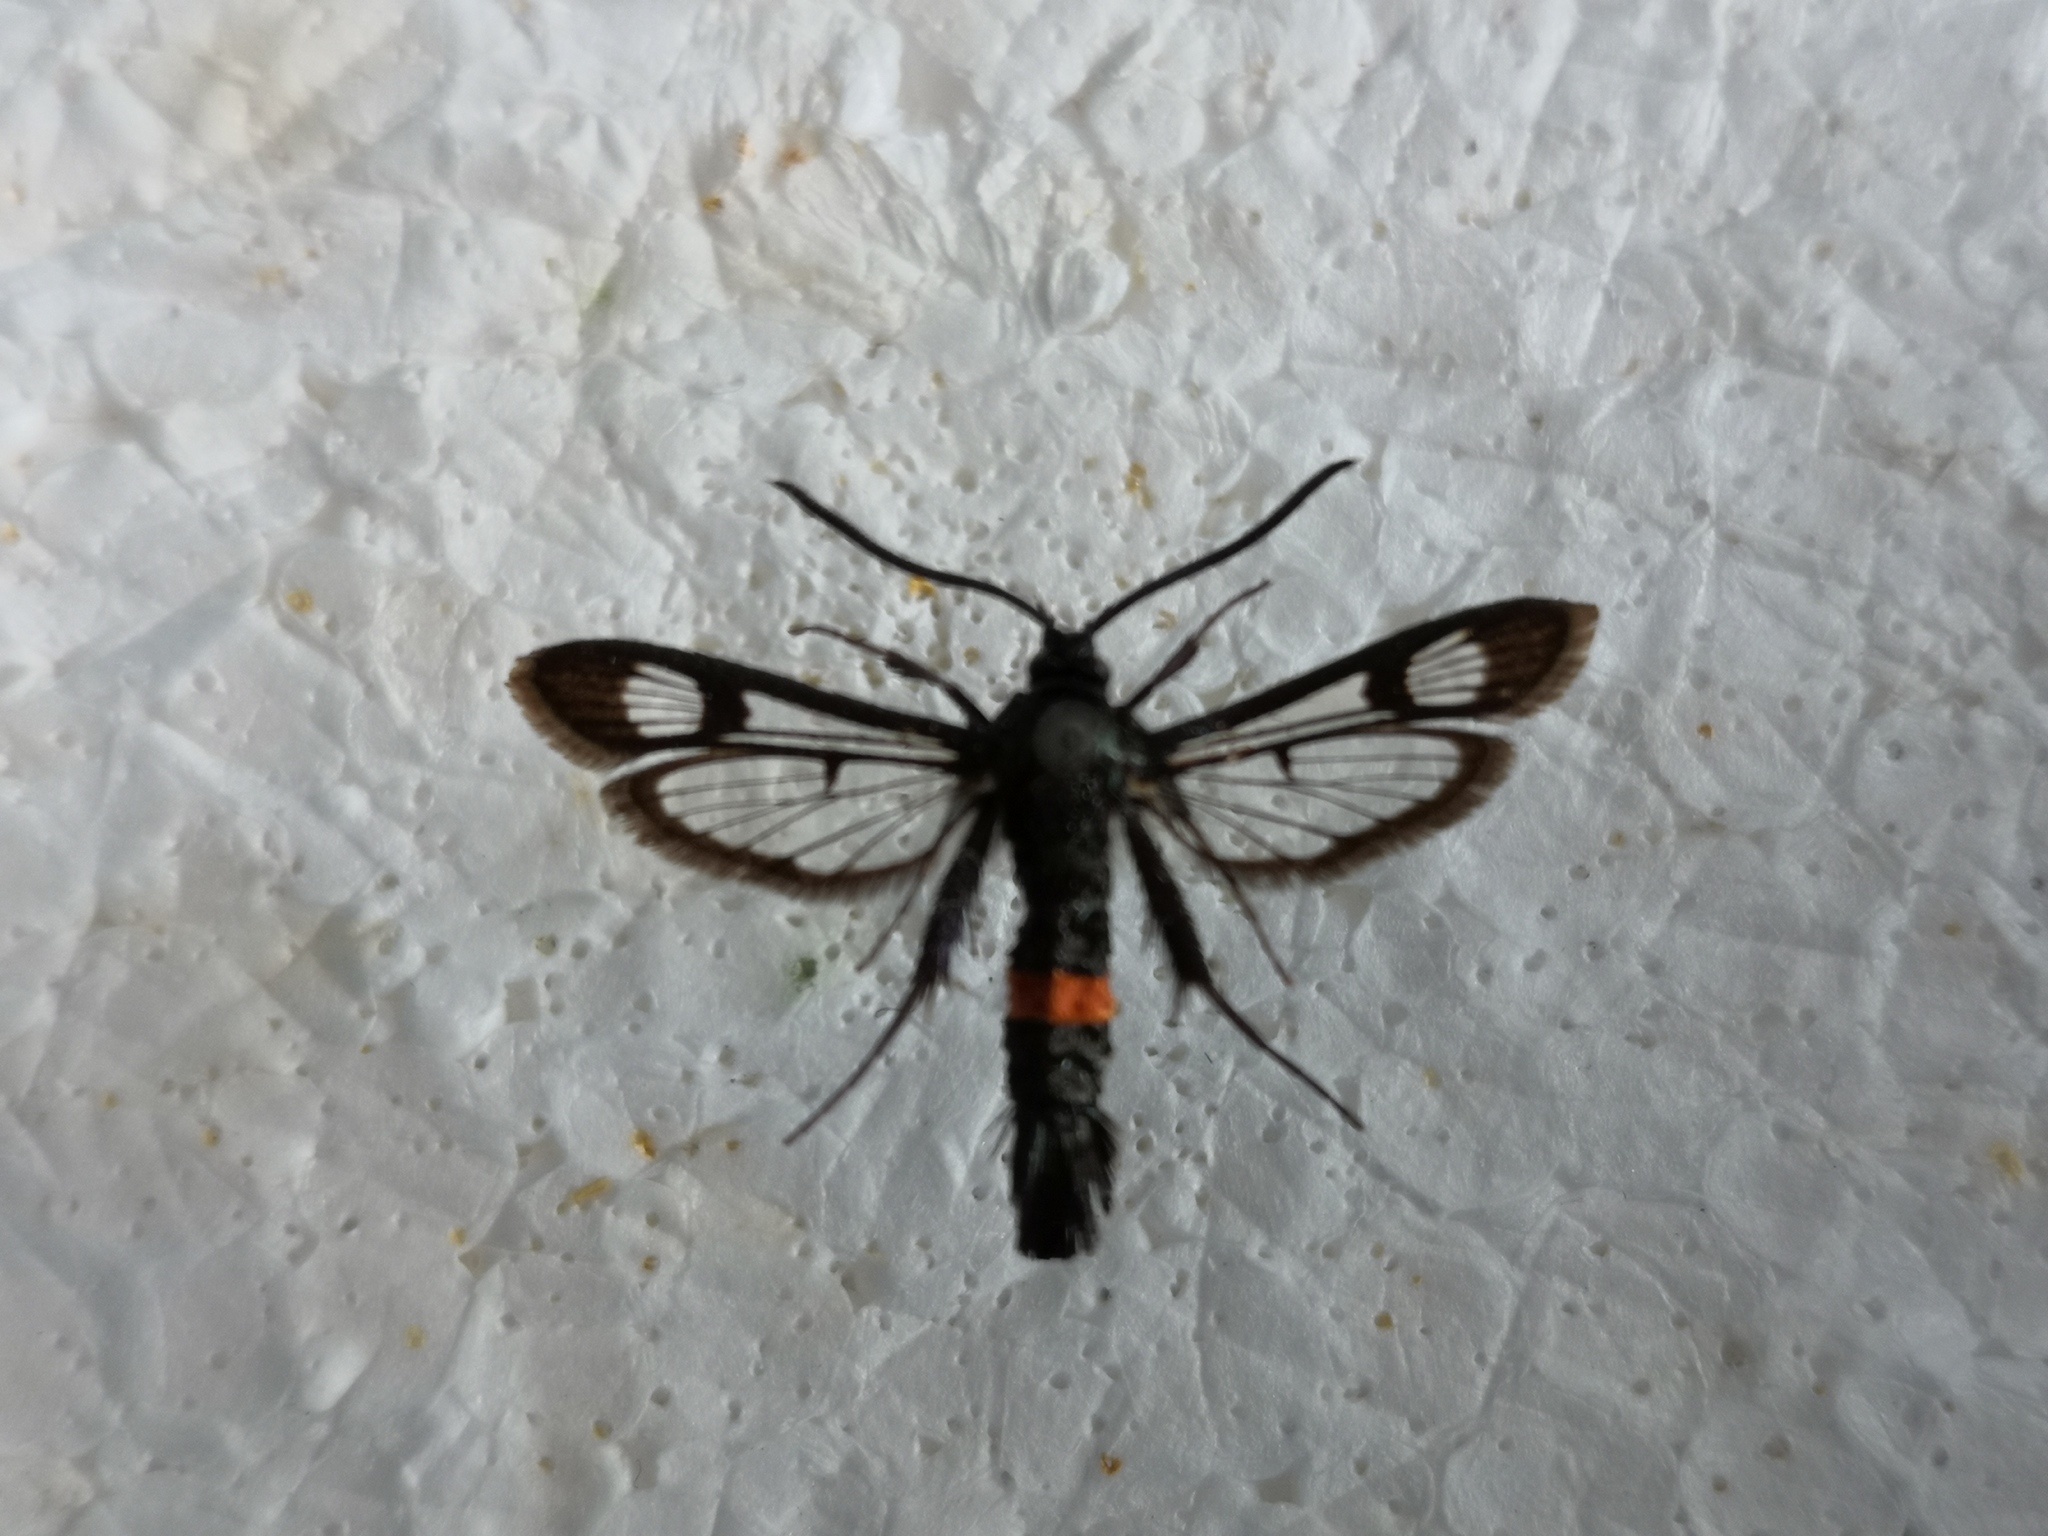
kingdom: Animalia
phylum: Arthropoda
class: Insecta
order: Lepidoptera
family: Sesiidae
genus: Synanthedon
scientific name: Synanthedon myopaeformis
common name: Red-belted clearwing
